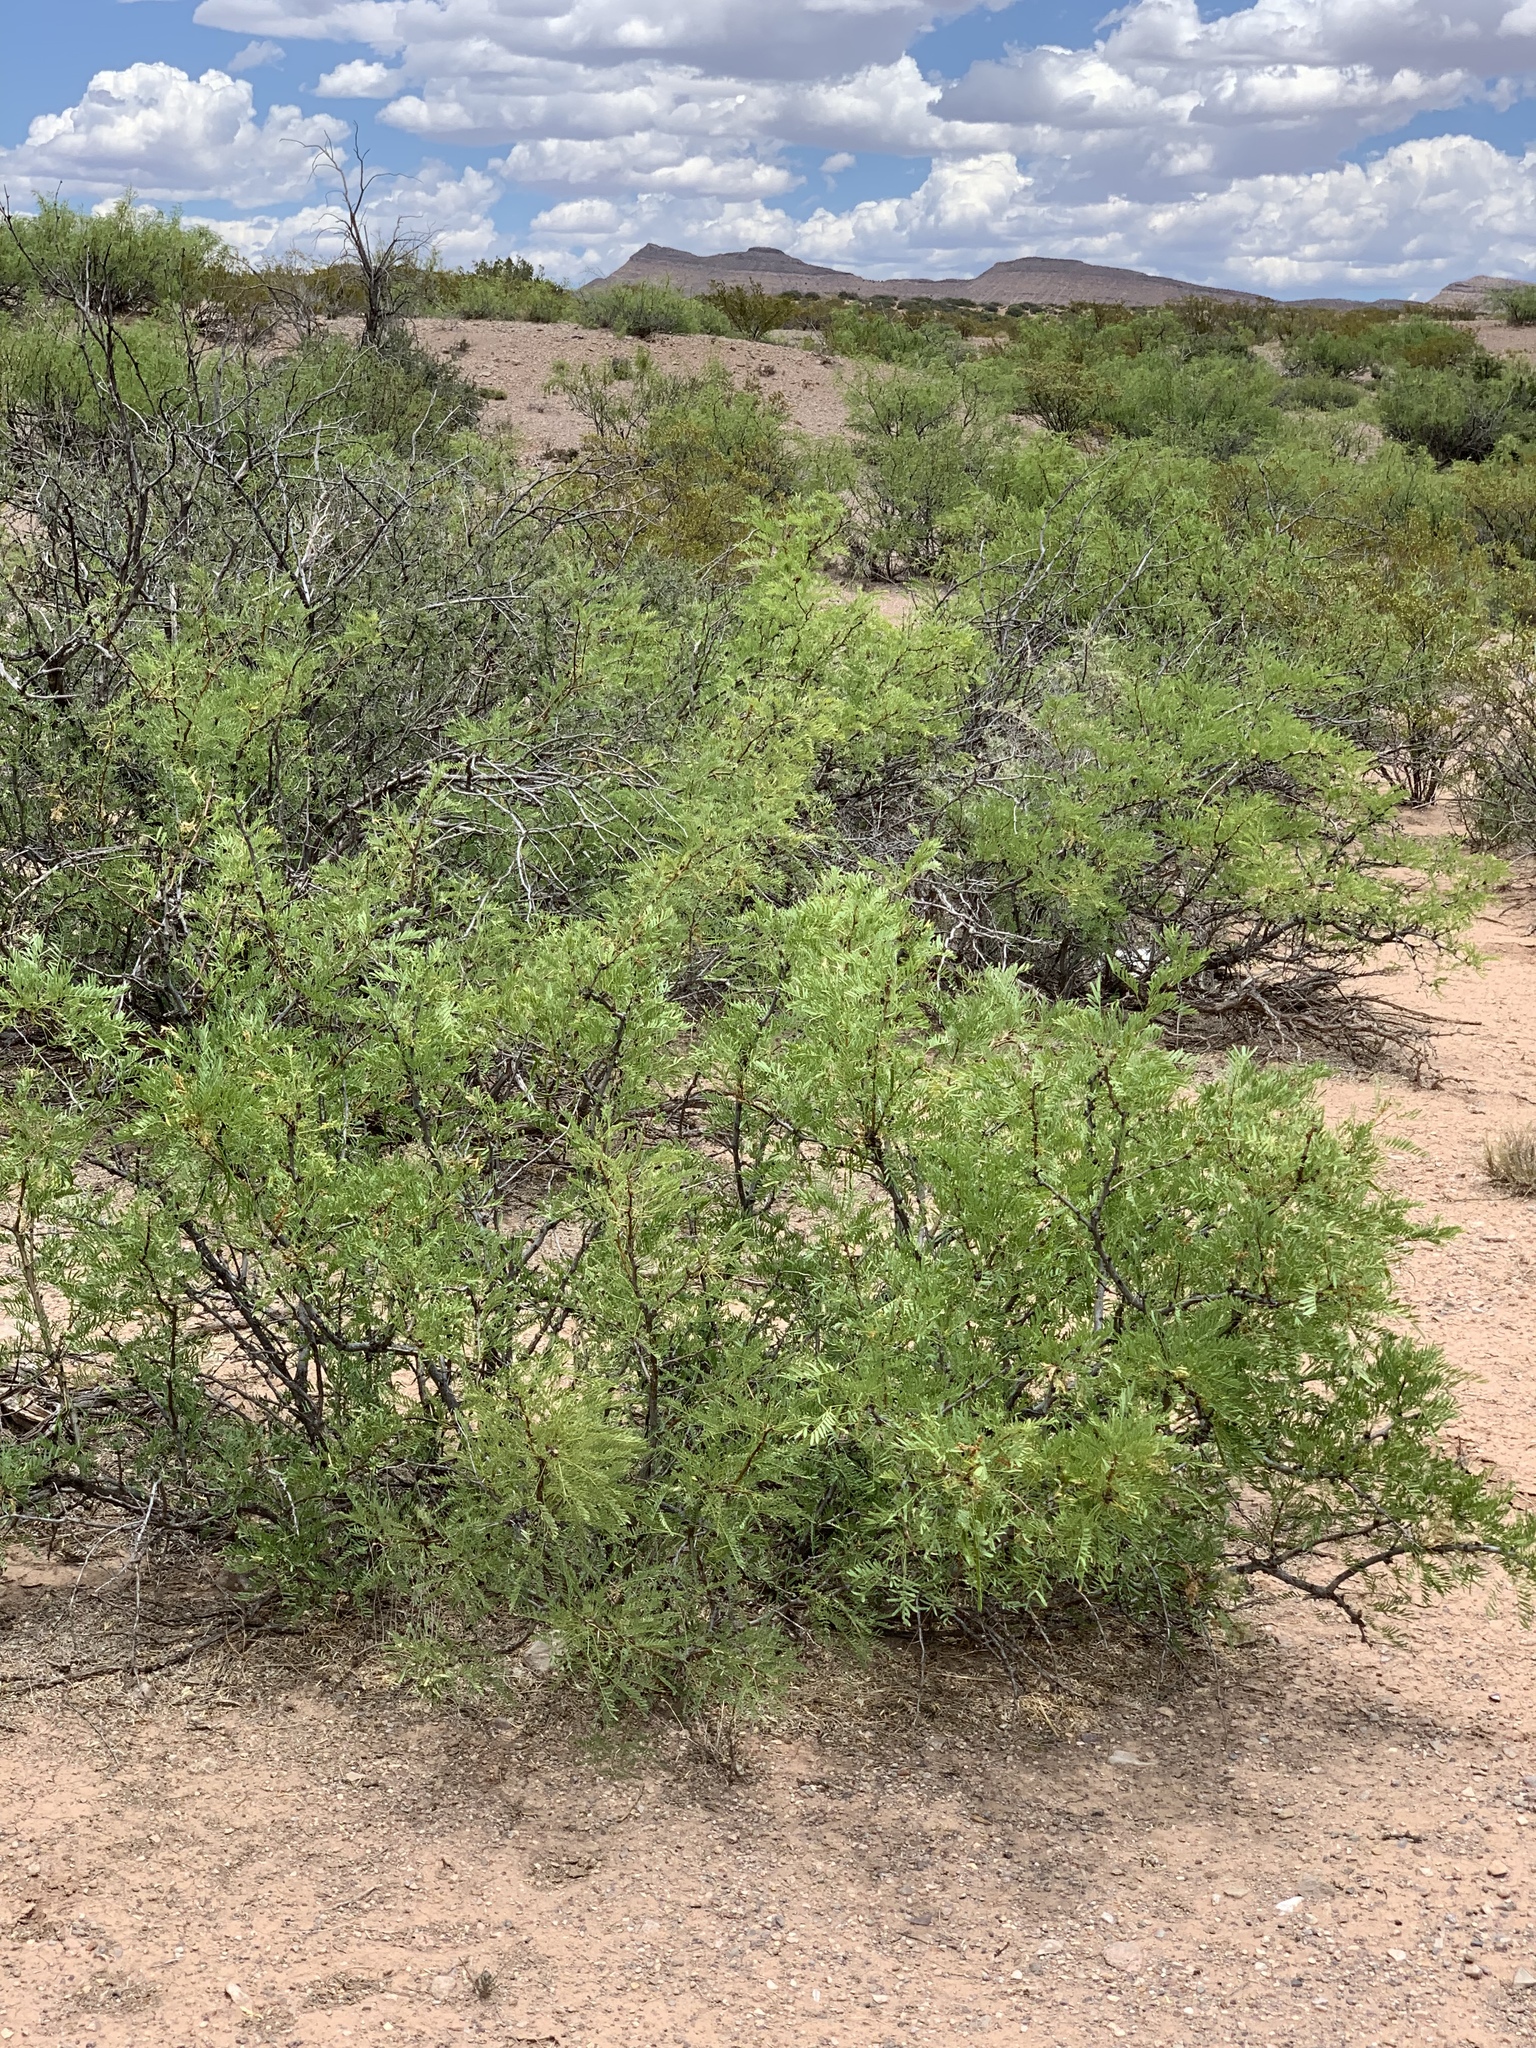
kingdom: Plantae
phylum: Tracheophyta
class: Magnoliopsida
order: Fabales
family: Fabaceae
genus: Prosopis
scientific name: Prosopis glandulosa
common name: Honey mesquite
